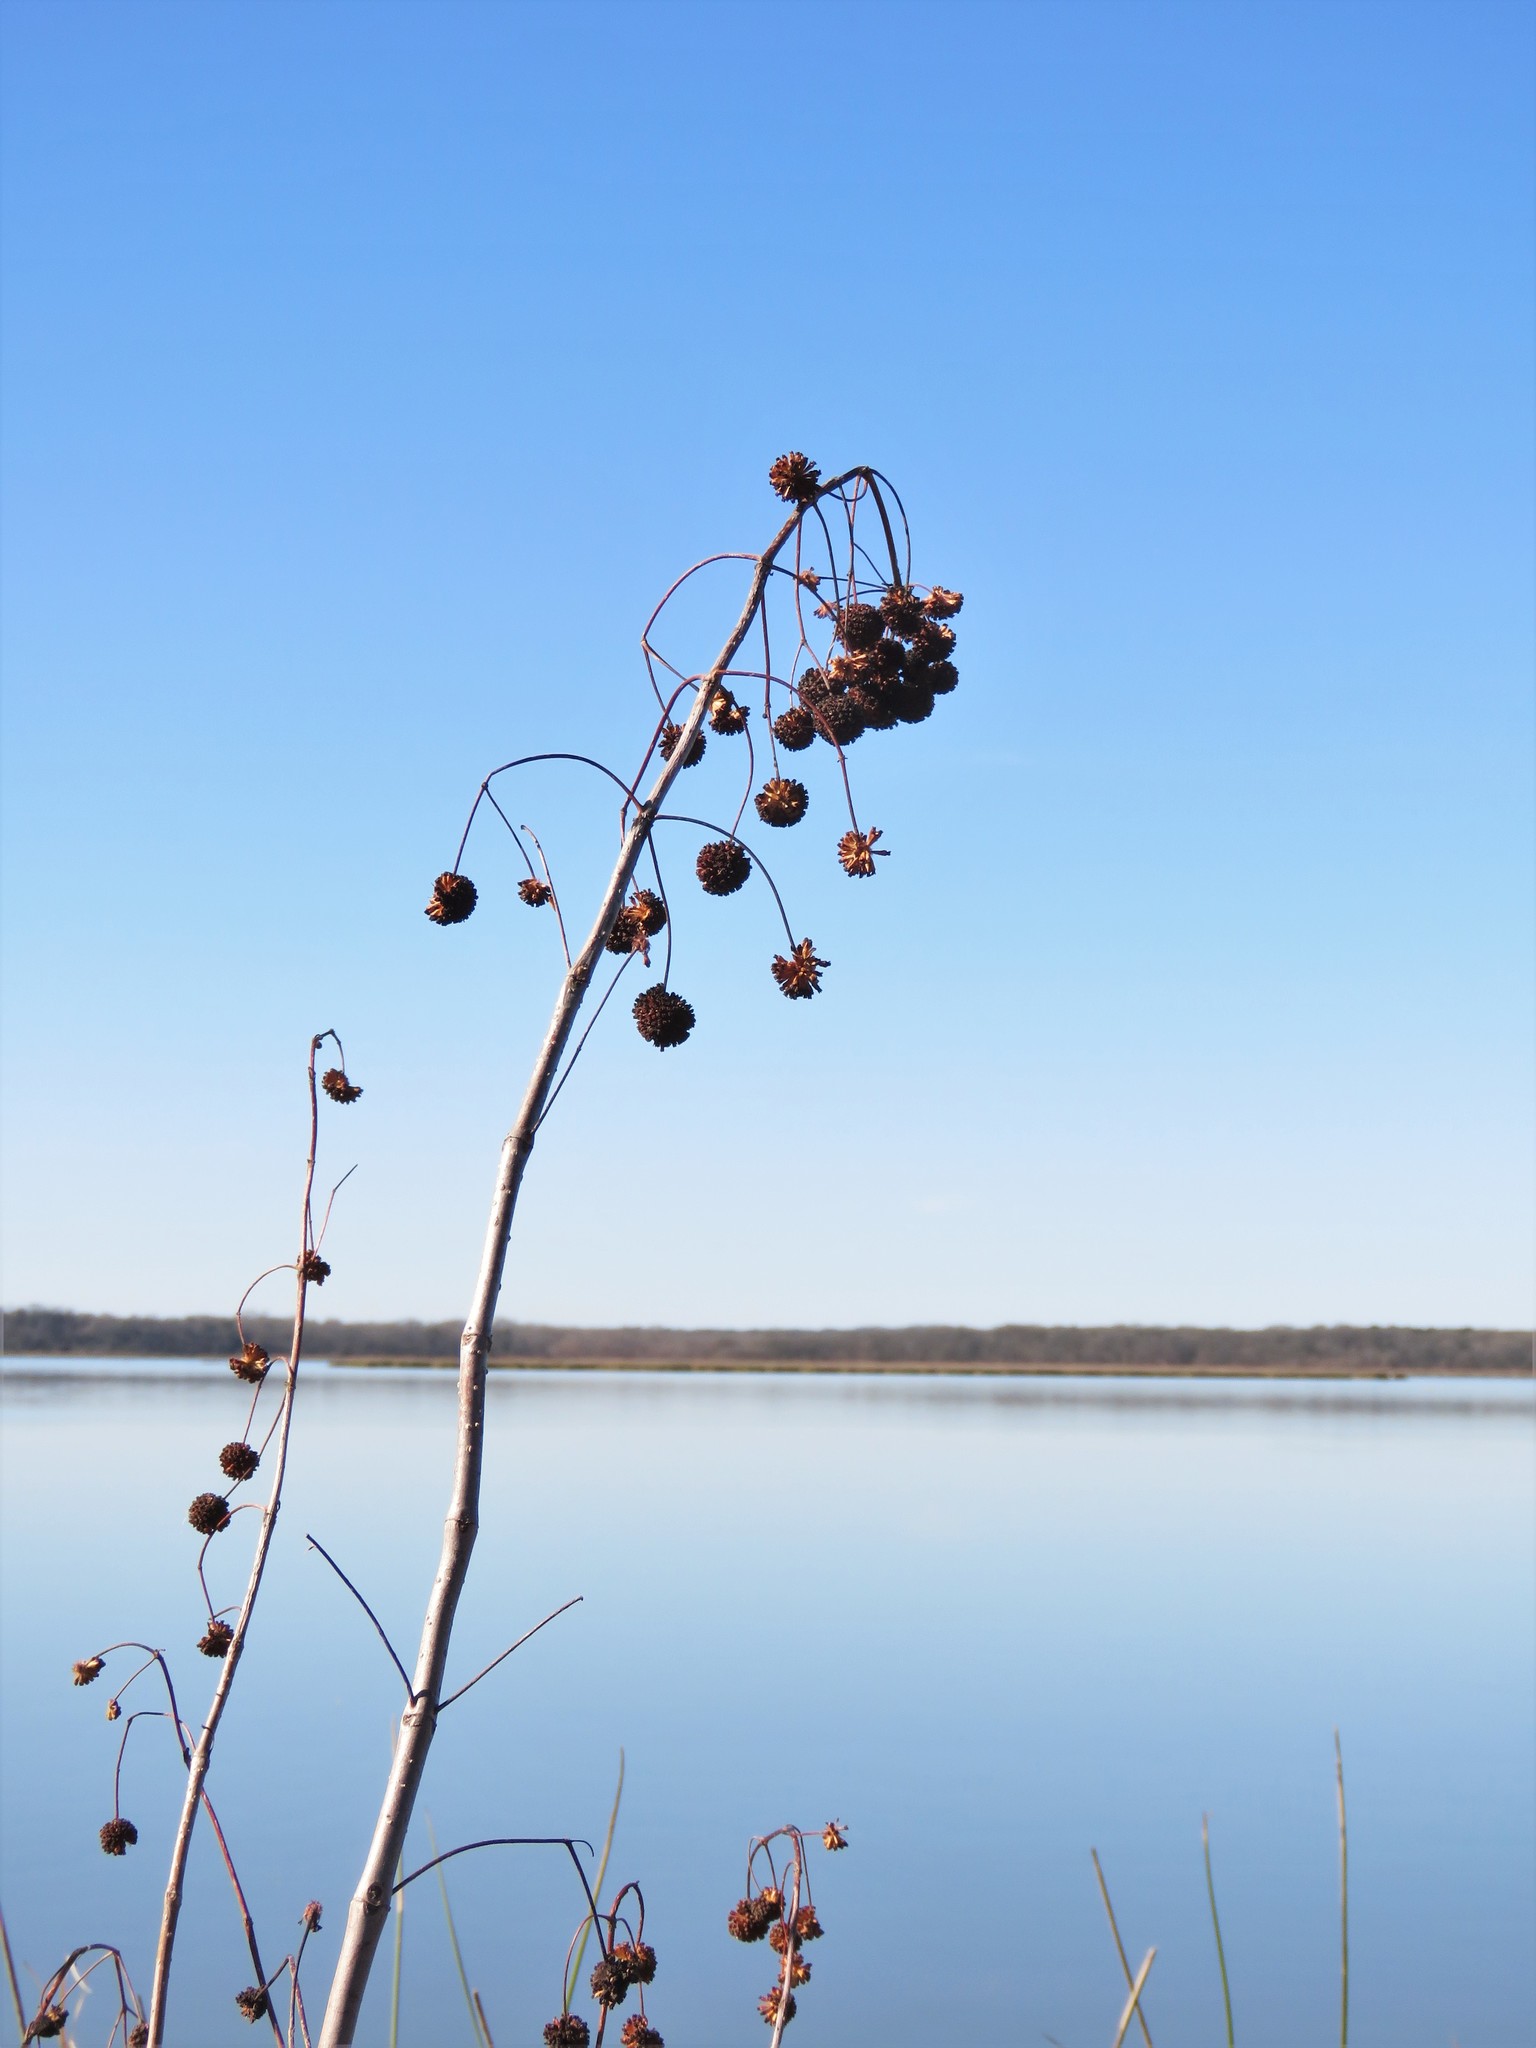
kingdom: Plantae
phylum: Tracheophyta
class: Magnoliopsida
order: Gentianales
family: Rubiaceae
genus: Cephalanthus
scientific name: Cephalanthus occidentalis
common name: Button-willow
